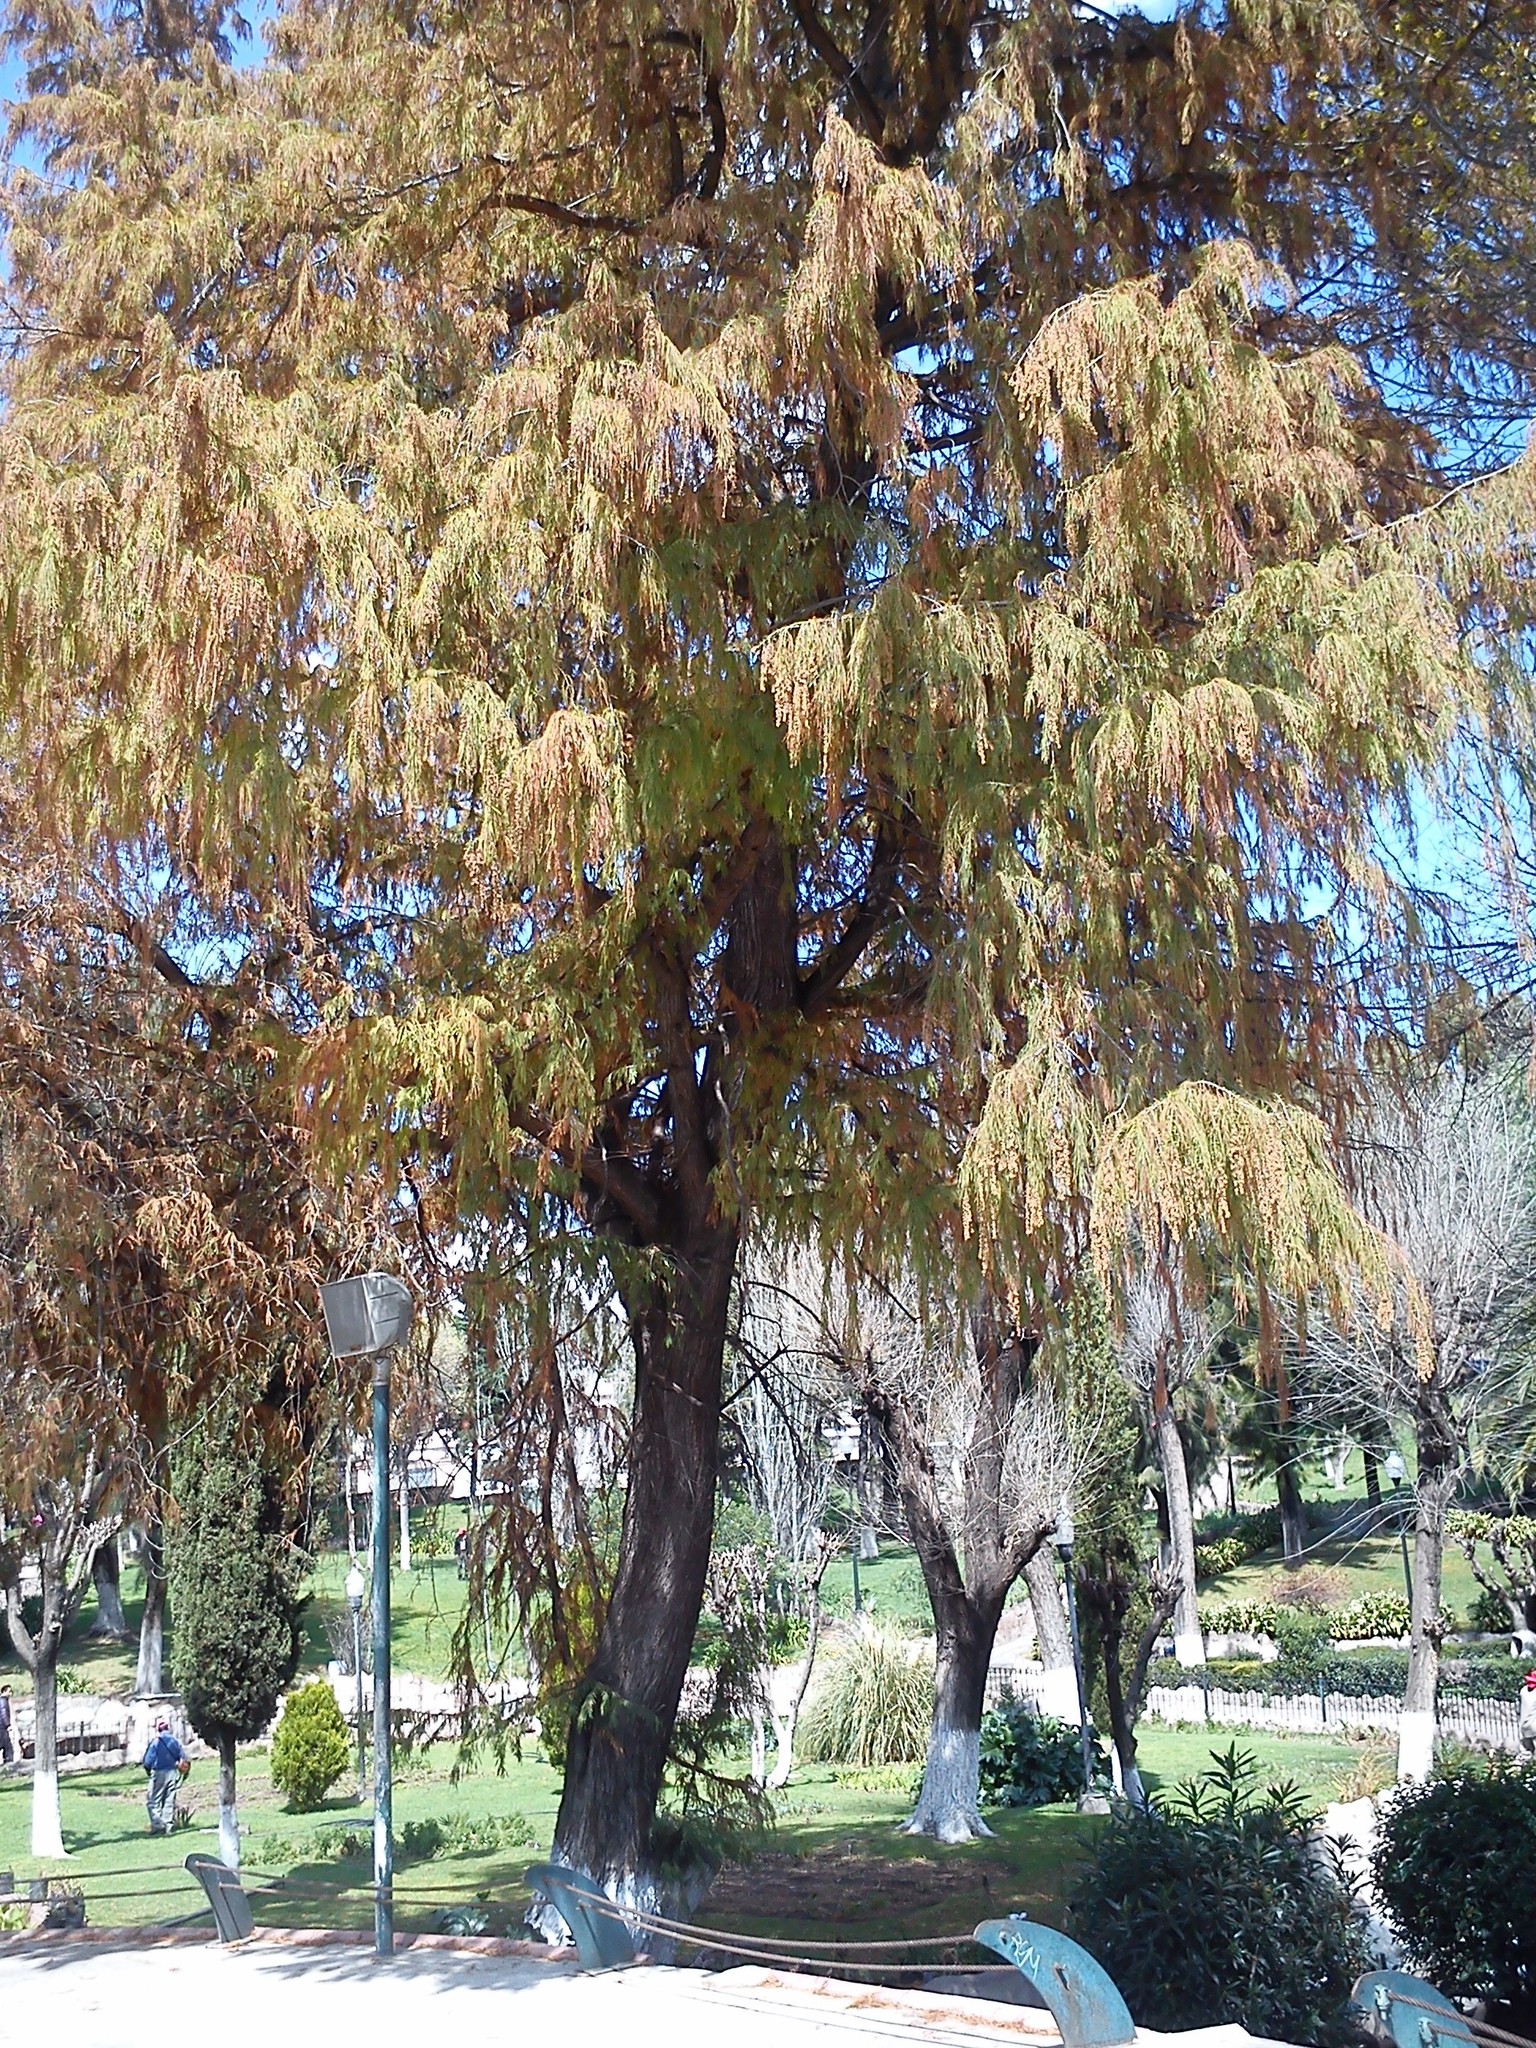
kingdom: Plantae
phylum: Tracheophyta
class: Pinopsida
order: Pinales
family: Cupressaceae
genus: Taxodium
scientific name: Taxodium mucronatum
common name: Montezume bald cypress
